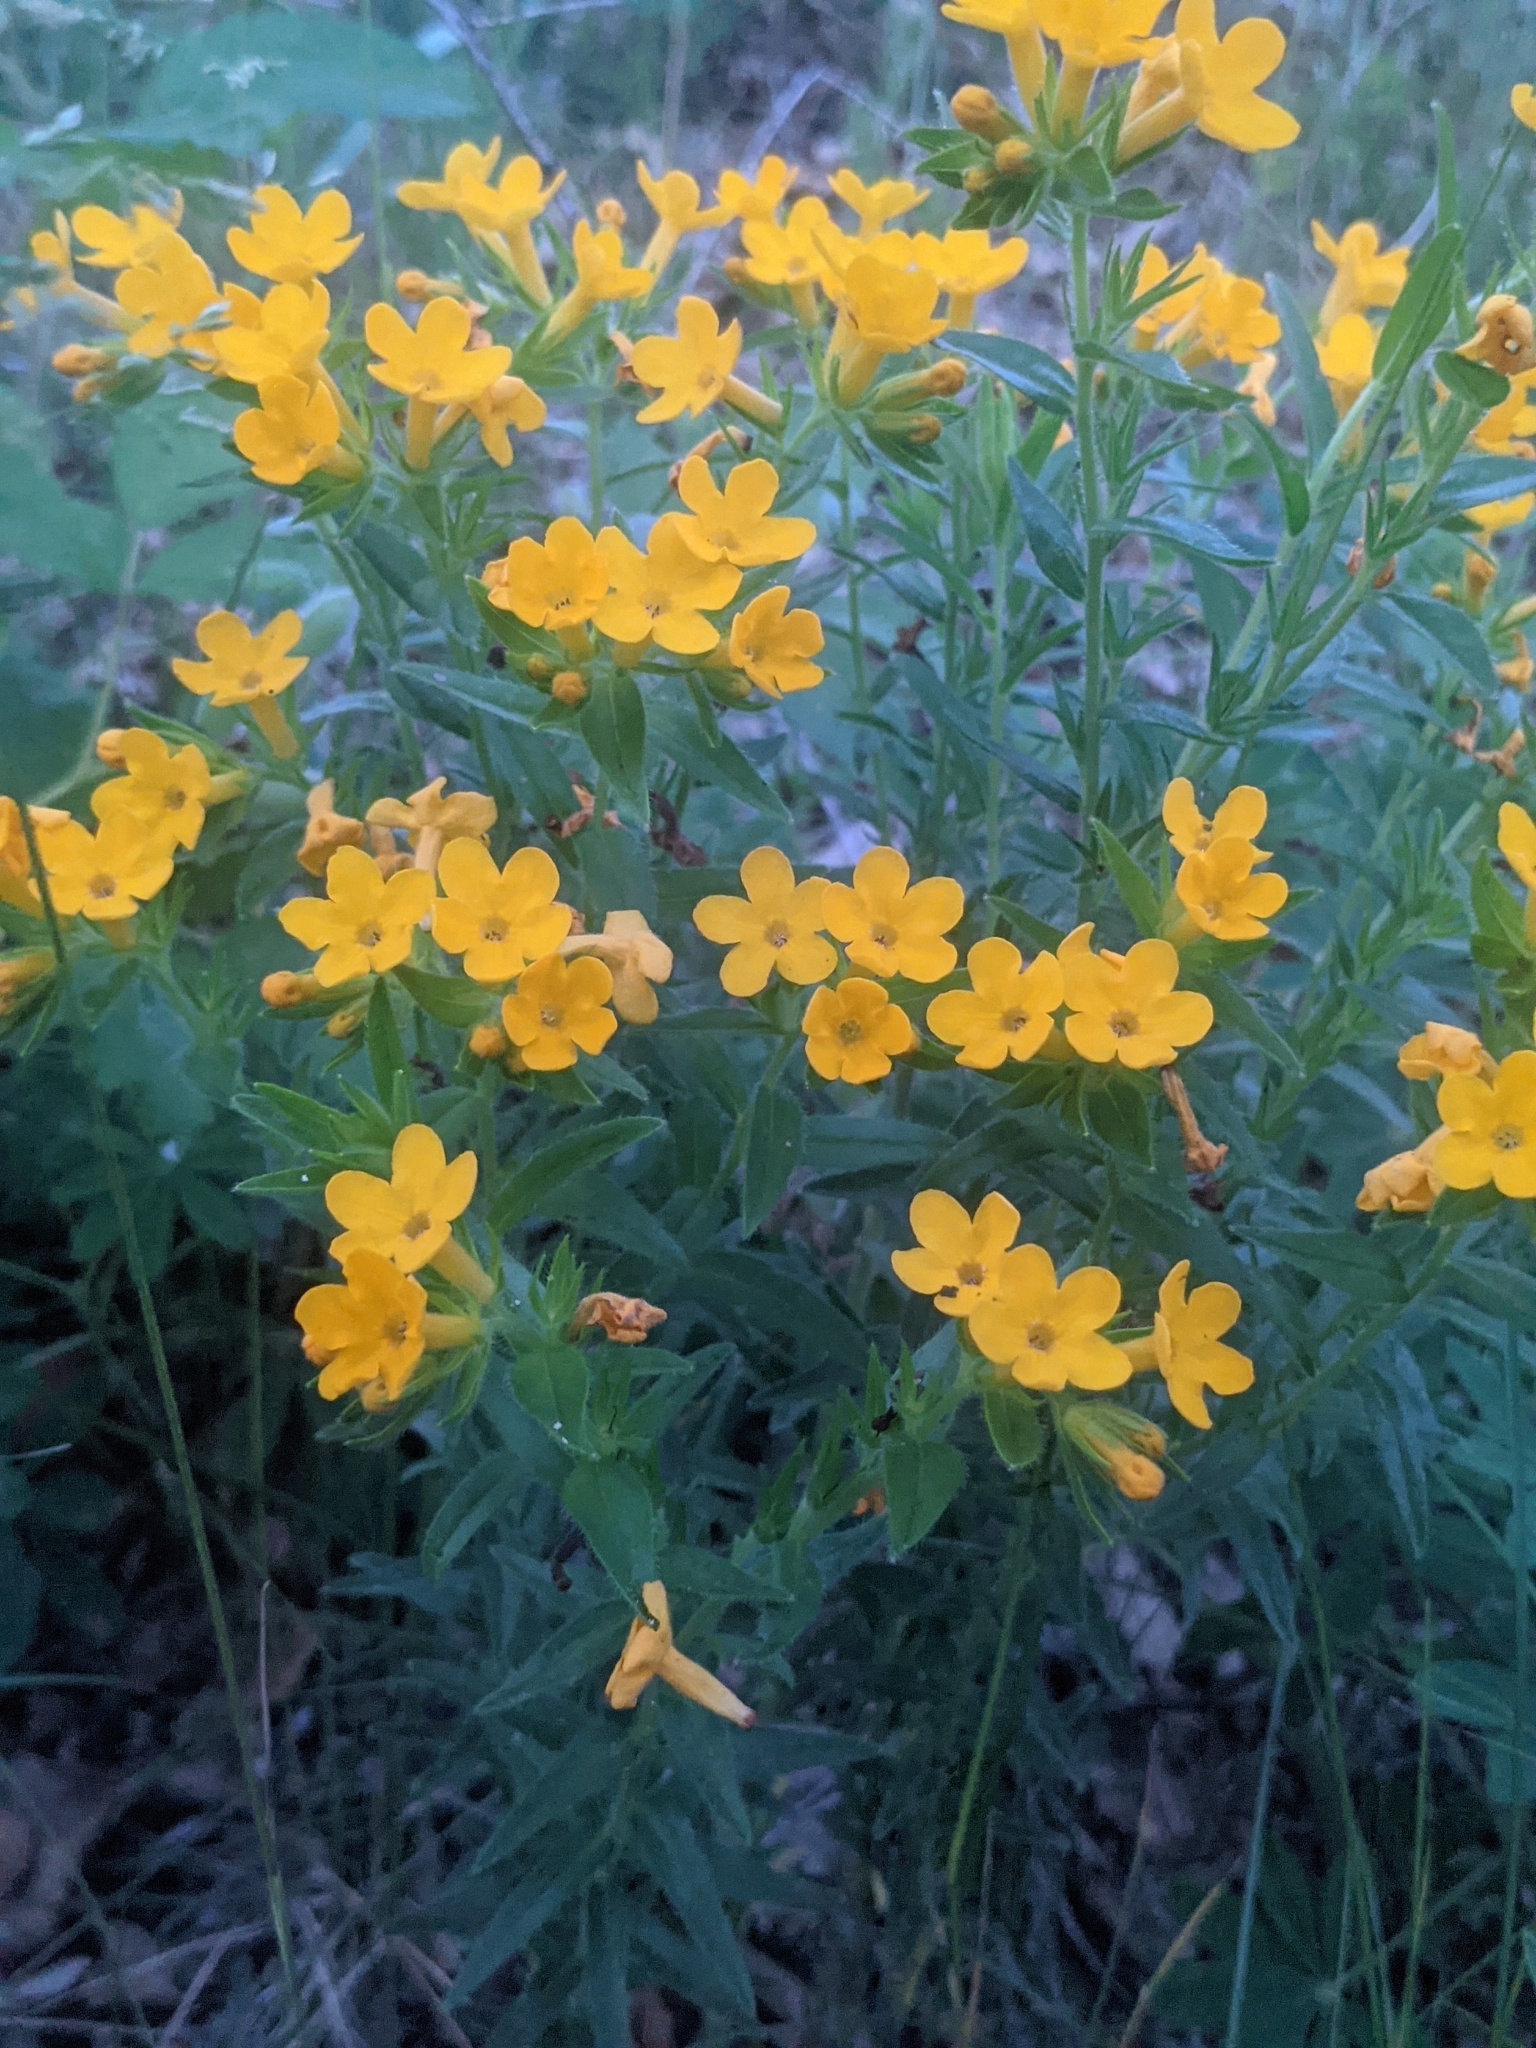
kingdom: Plantae
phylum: Tracheophyta
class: Magnoliopsida
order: Boraginales
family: Boraginaceae
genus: Lithospermum
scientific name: Lithospermum canescens
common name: Hoary puccoon
